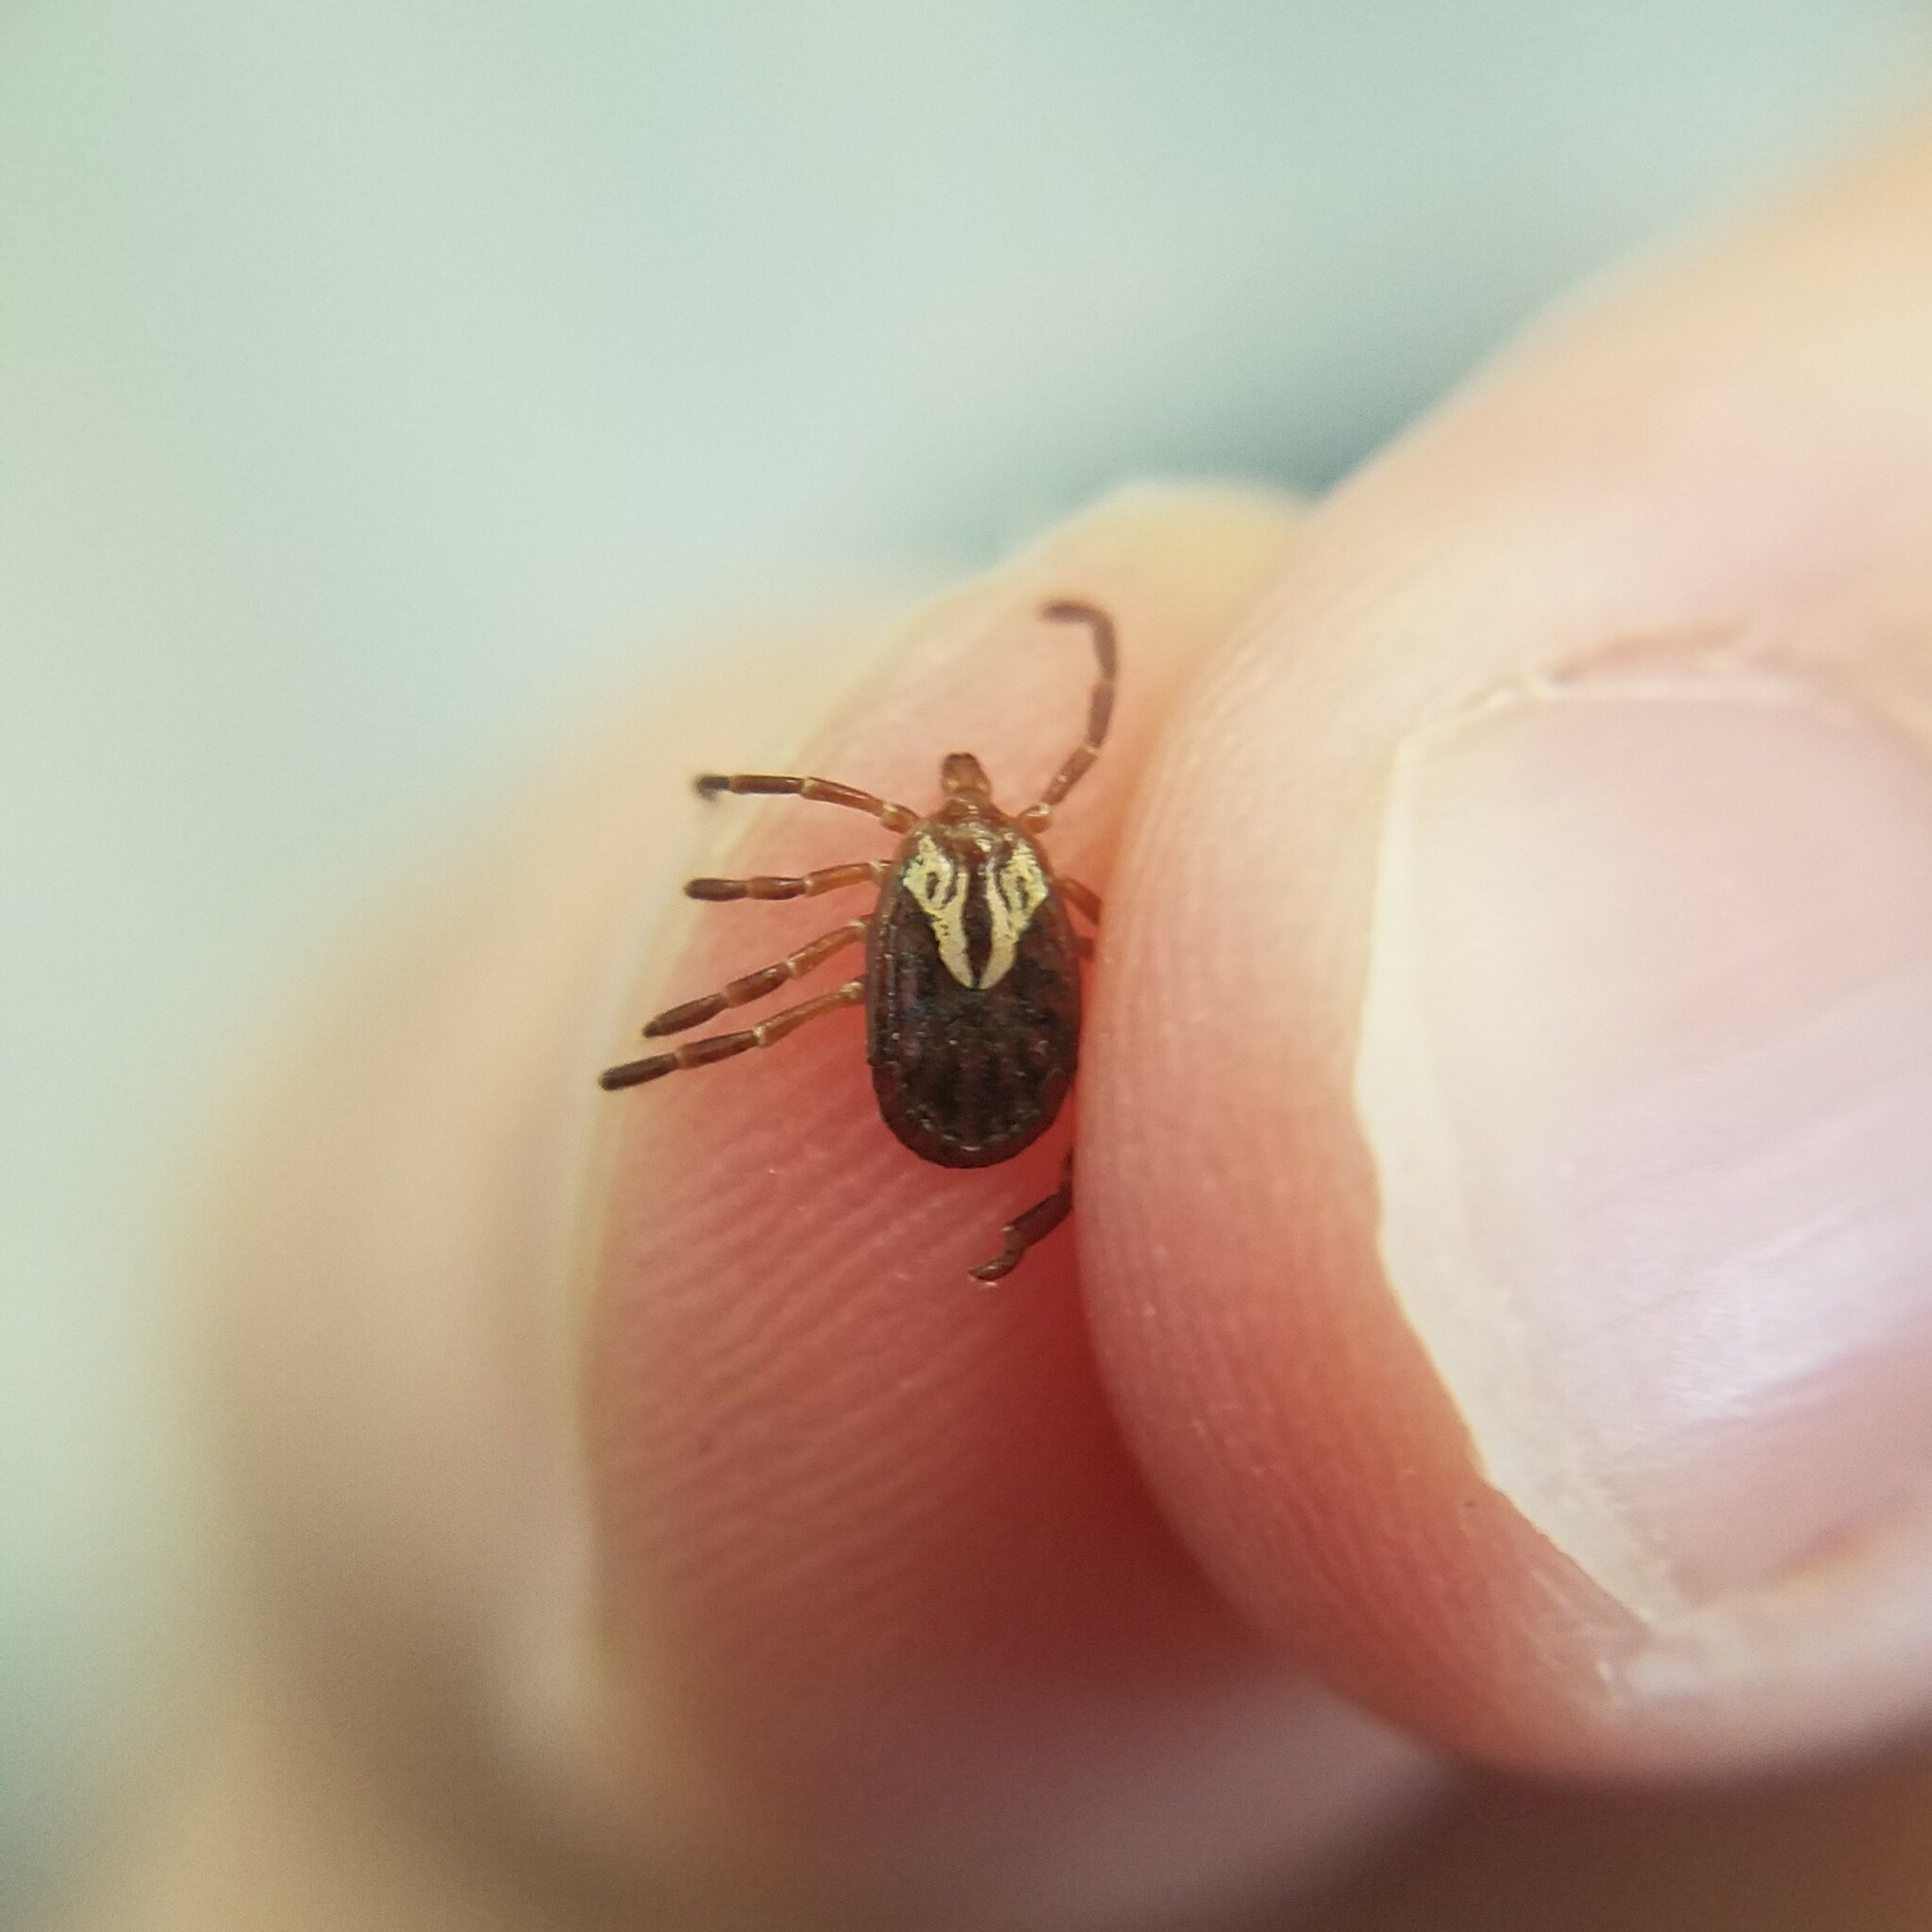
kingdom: Animalia
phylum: Arthropoda
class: Arachnida
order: Ixodida
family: Ixodidae
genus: Amblyomma
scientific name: Amblyomma maculatum
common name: Gulf coast tick
